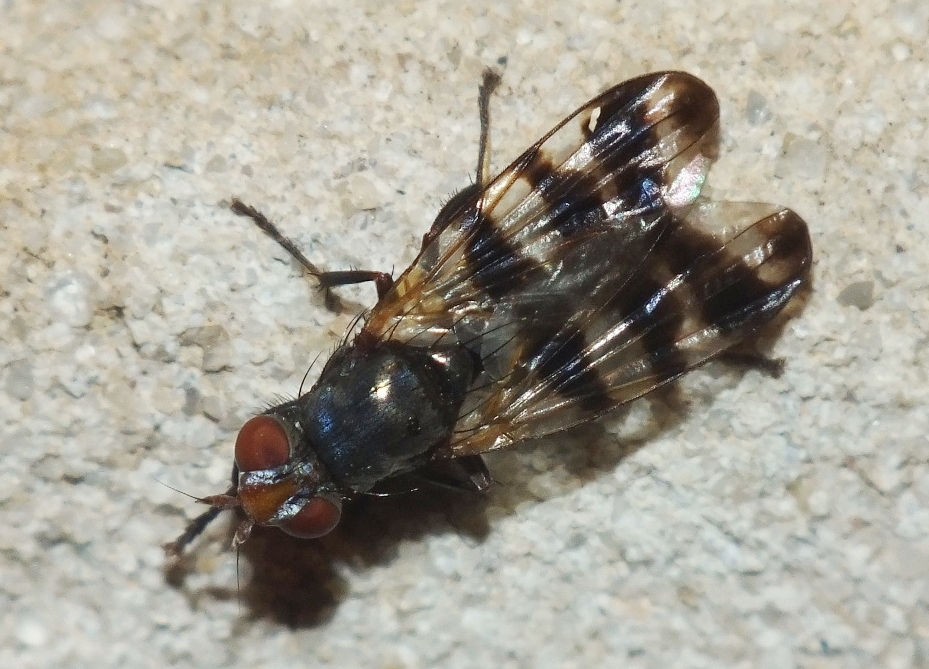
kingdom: Animalia
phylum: Arthropoda
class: Insecta
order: Diptera
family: Ulidiidae
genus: Ceroxys
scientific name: Ceroxys urticae
